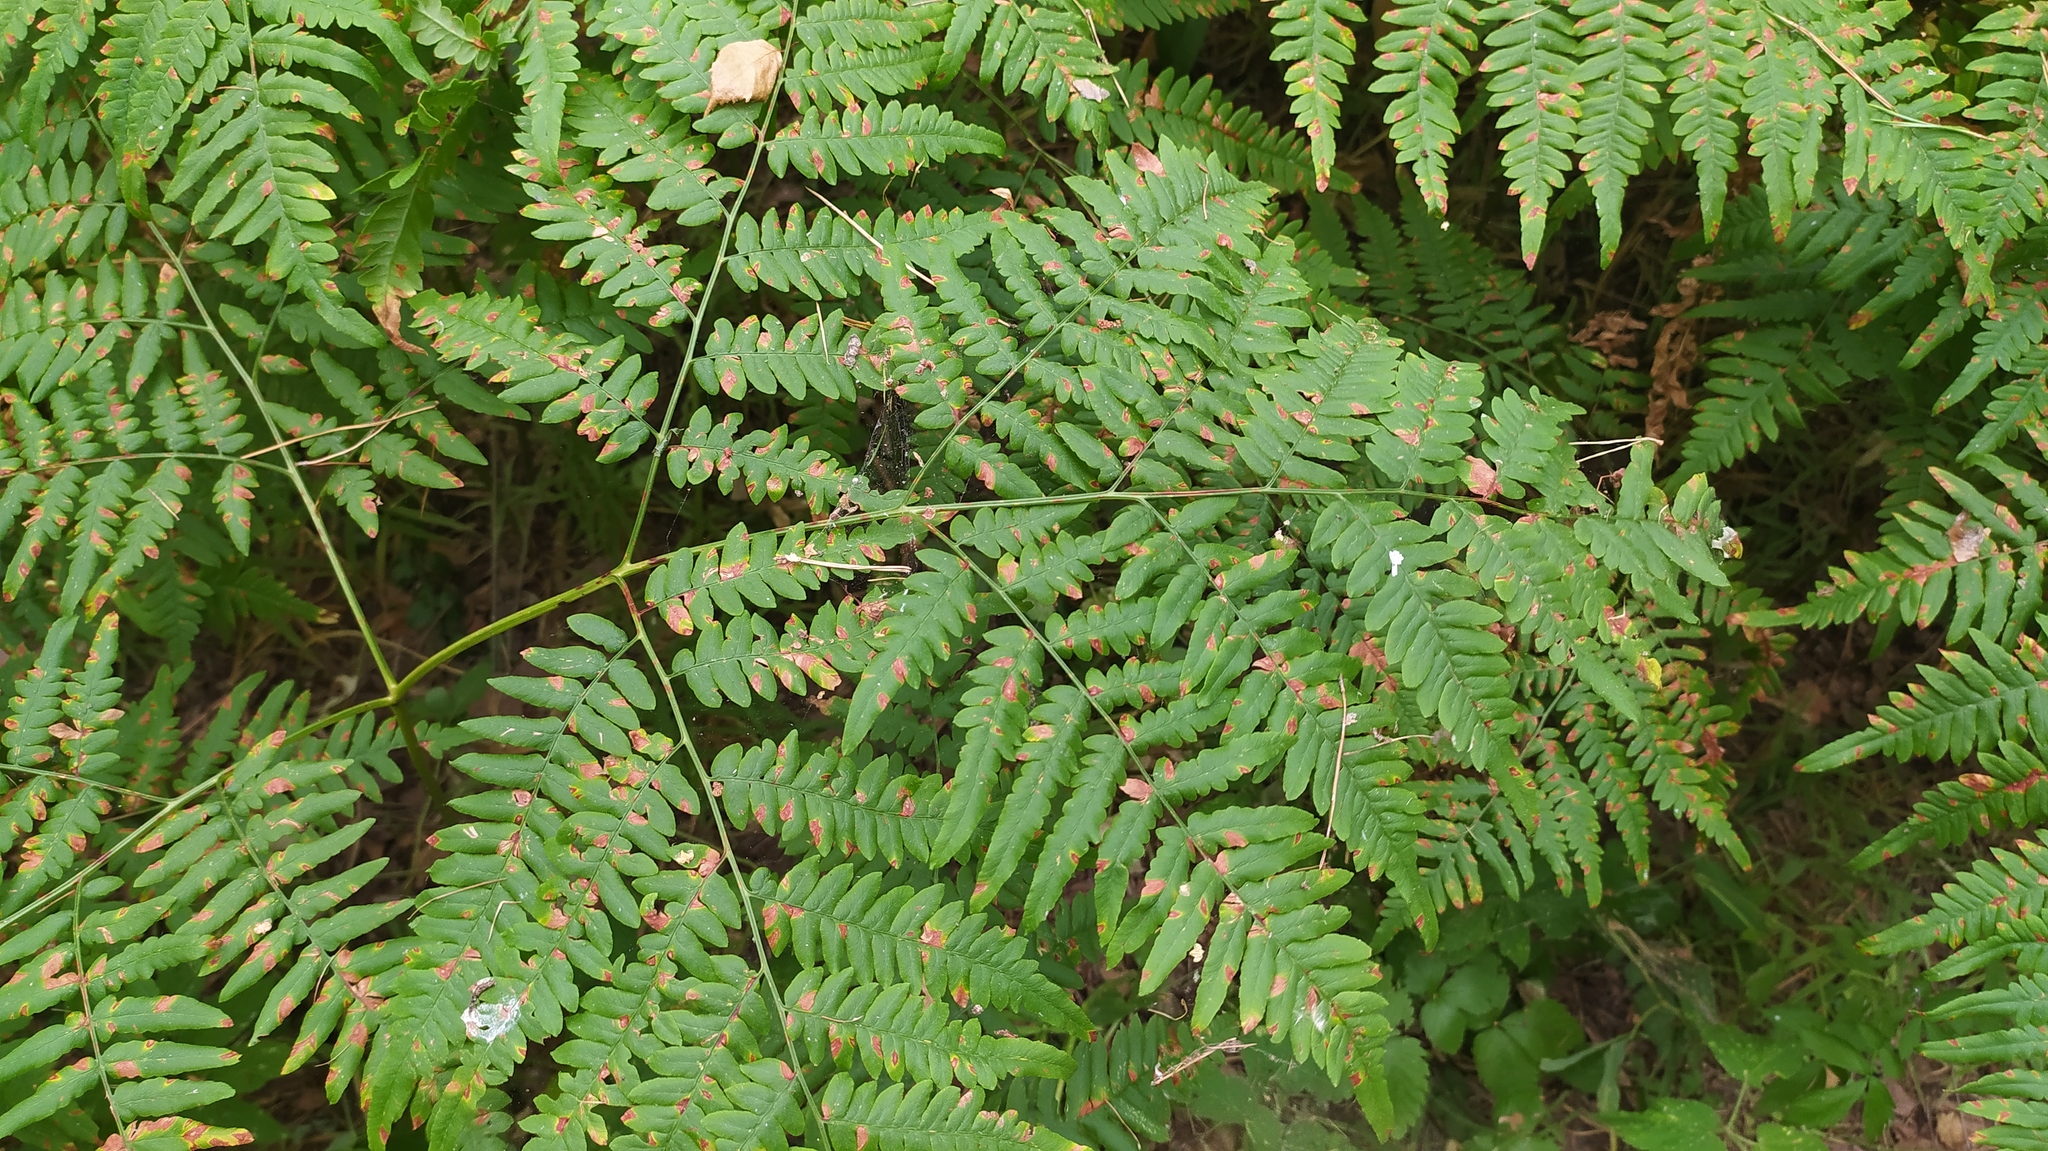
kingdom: Plantae
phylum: Tracheophyta
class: Polypodiopsida
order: Polypodiales
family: Dennstaedtiaceae
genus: Pteridium
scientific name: Pteridium aquilinum
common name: Bracken
